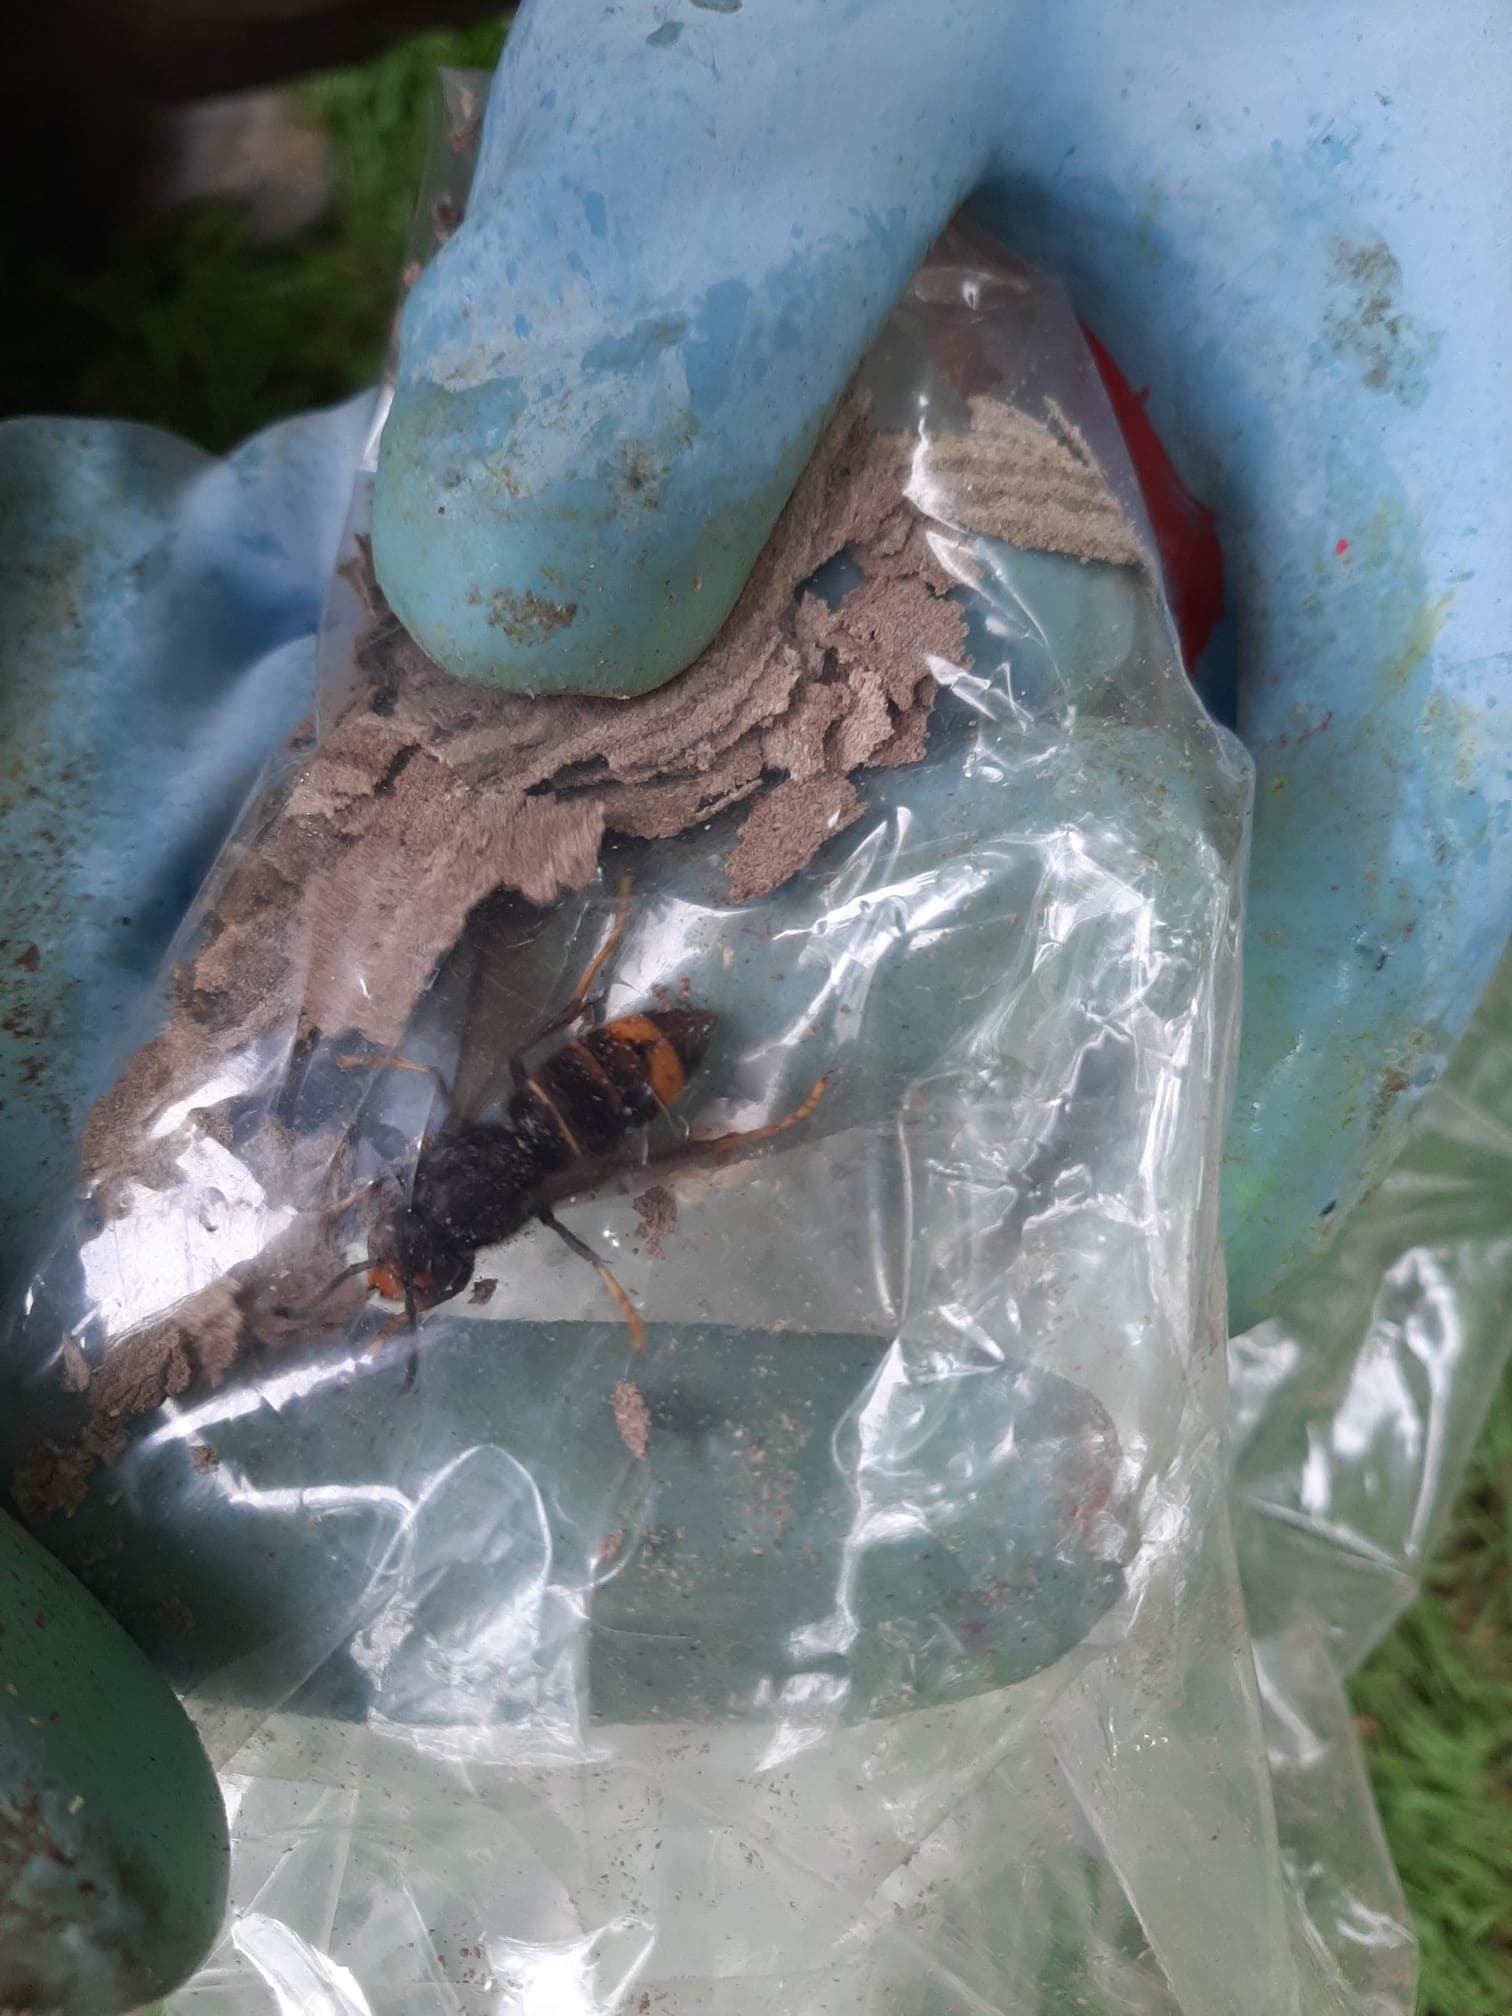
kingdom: Animalia
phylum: Arthropoda
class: Insecta
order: Hymenoptera
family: Vespidae
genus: Vespa
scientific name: Vespa velutina
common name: Asian hornet
